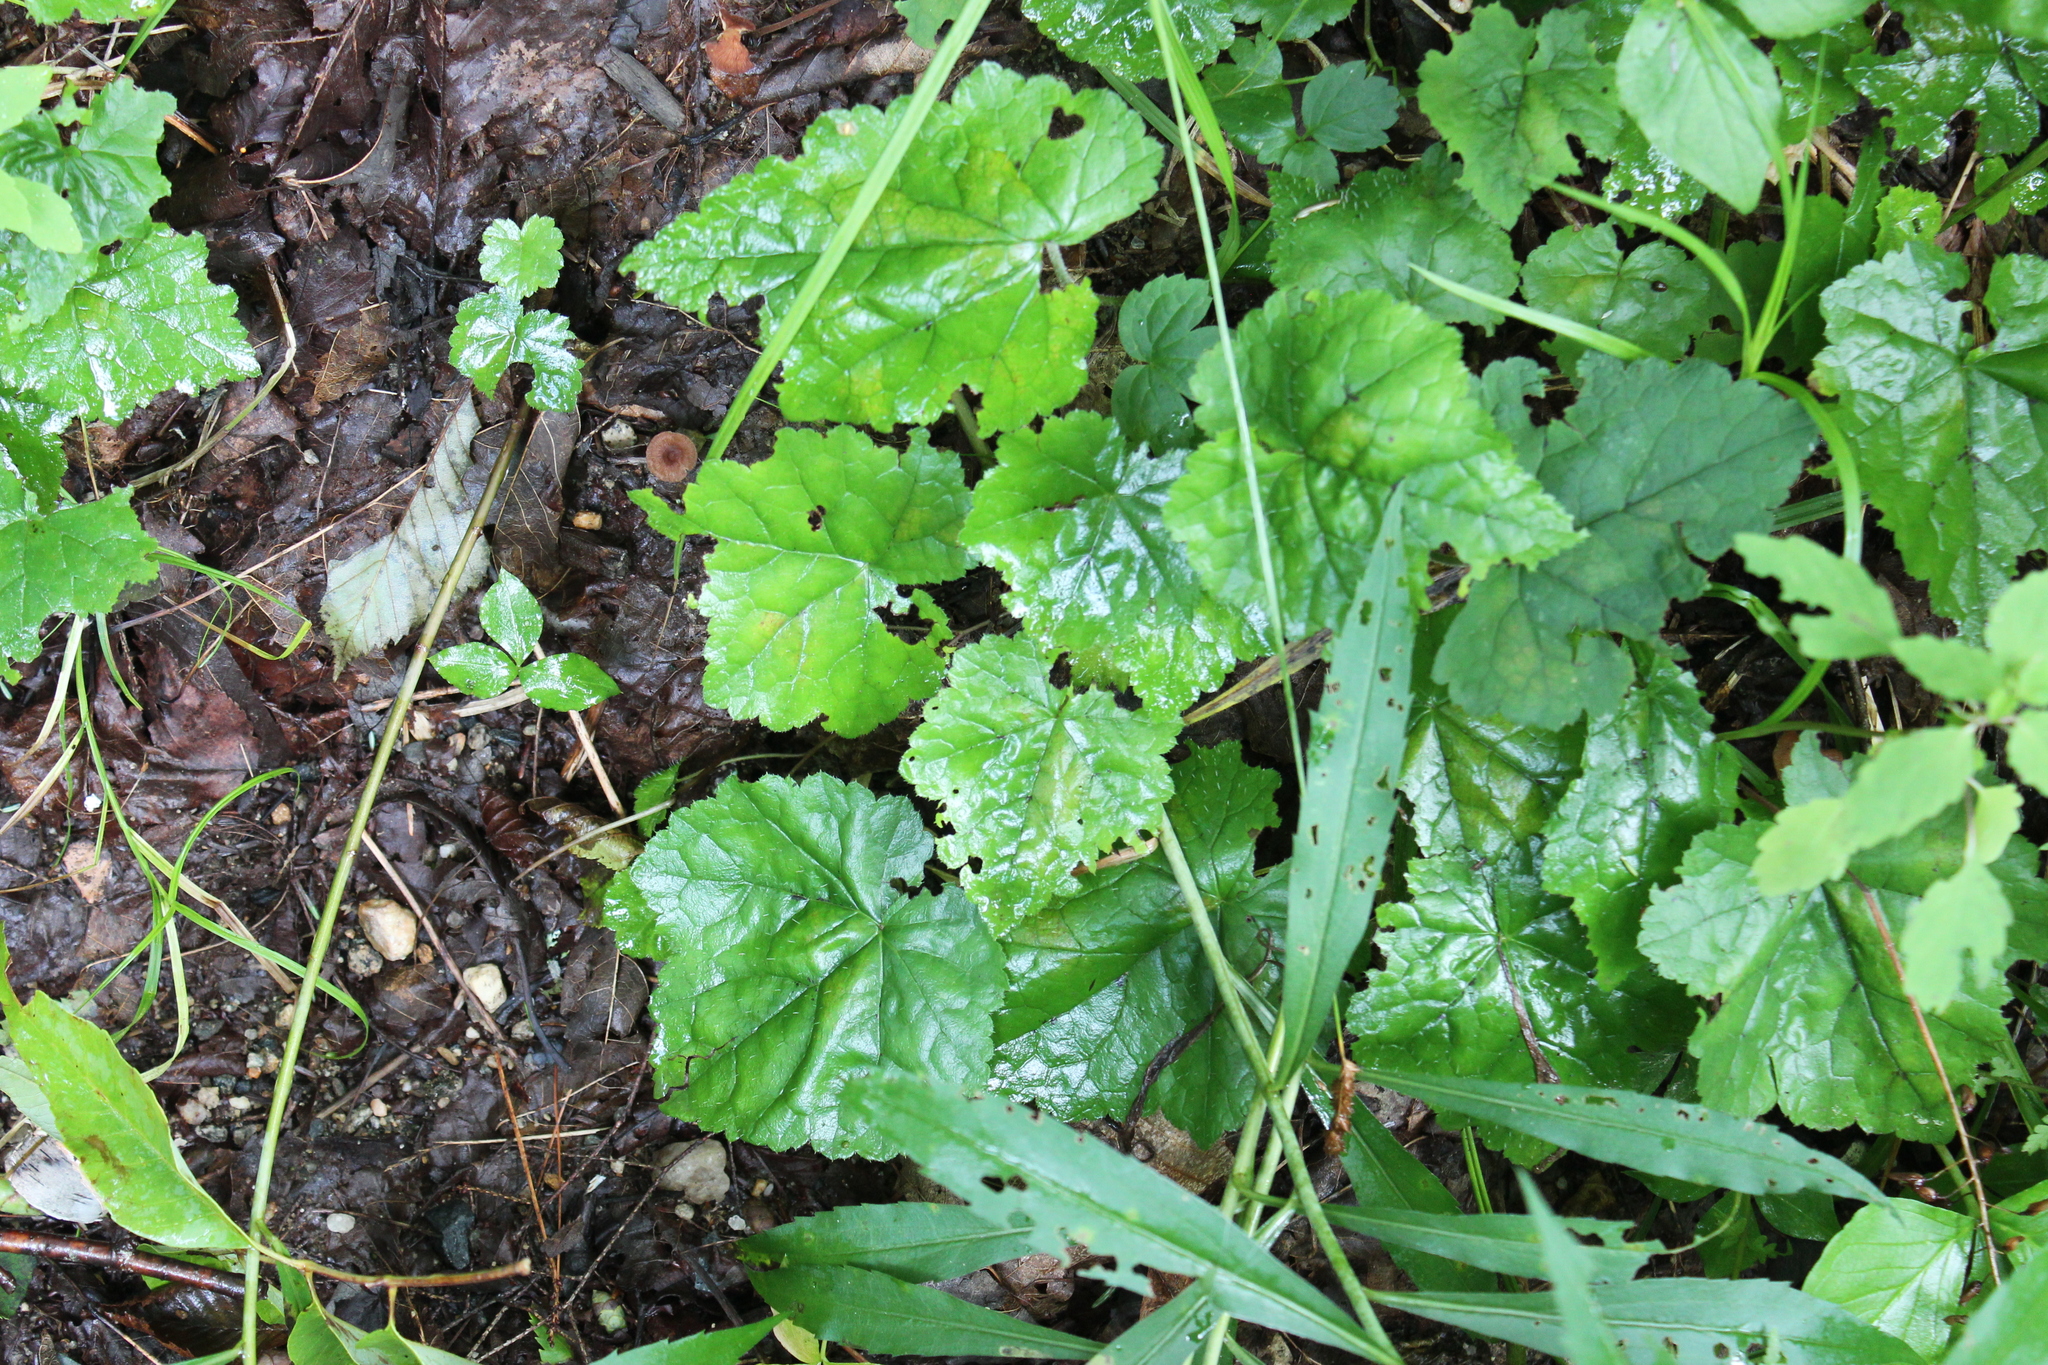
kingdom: Plantae
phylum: Tracheophyta
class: Magnoliopsida
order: Saxifragales
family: Saxifragaceae
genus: Tiarella
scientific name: Tiarella stolonifera
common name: Stoloniferous foamflower
